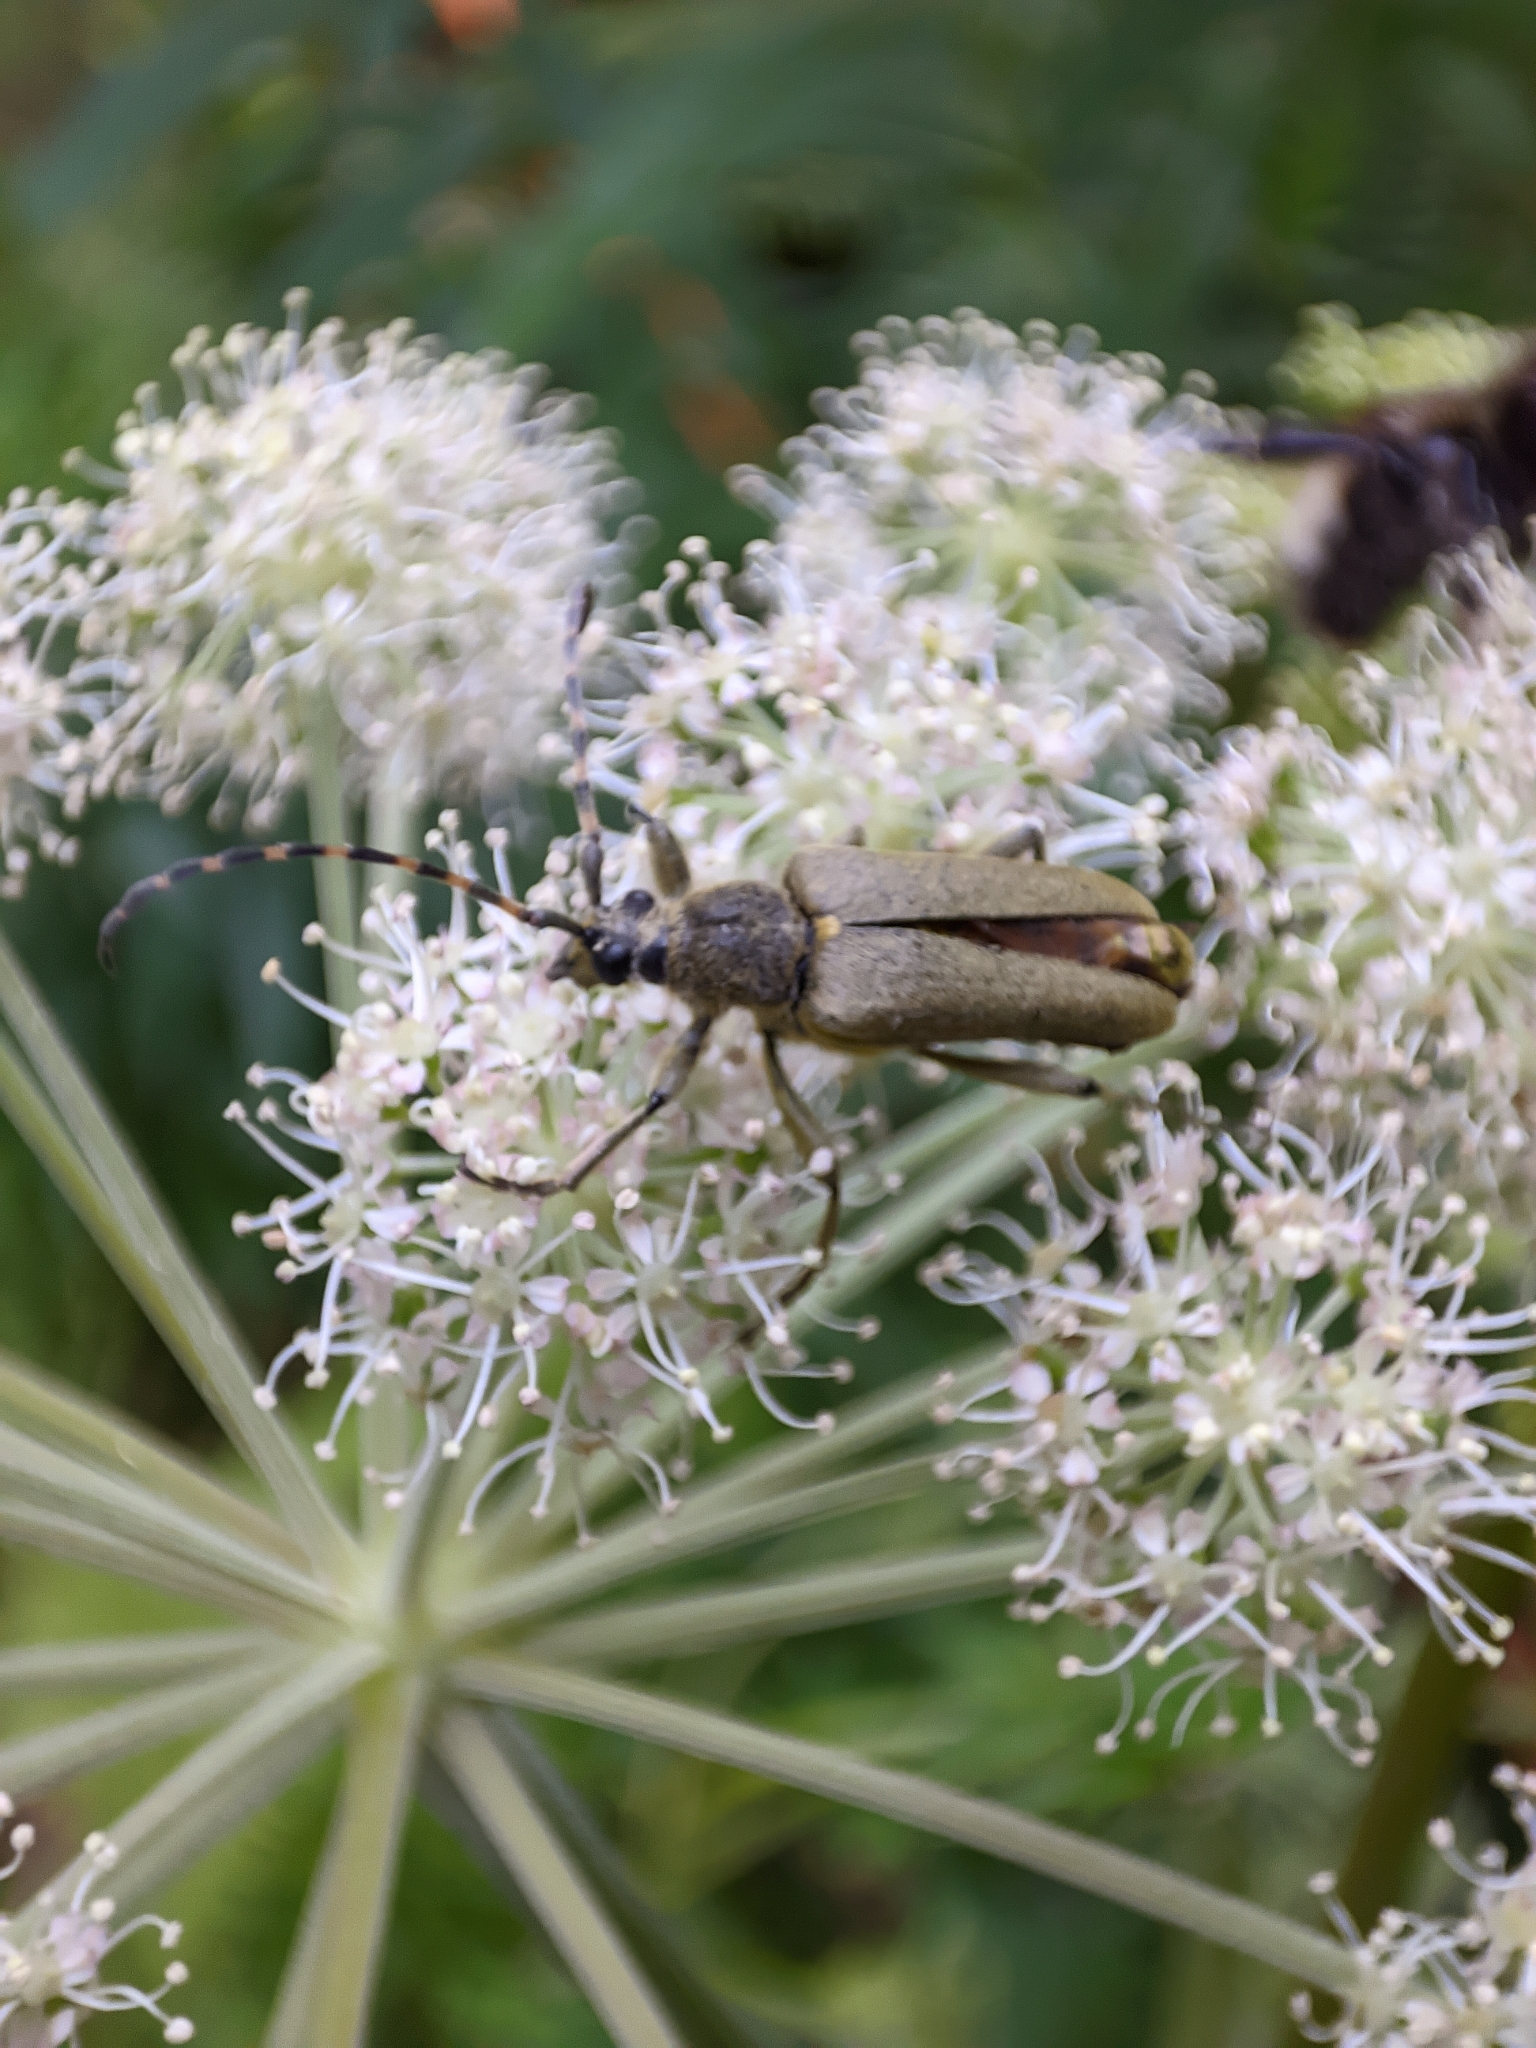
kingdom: Animalia
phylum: Arthropoda
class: Insecta
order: Coleoptera
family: Cerambycidae
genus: Lepturobosca
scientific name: Lepturobosca virens
